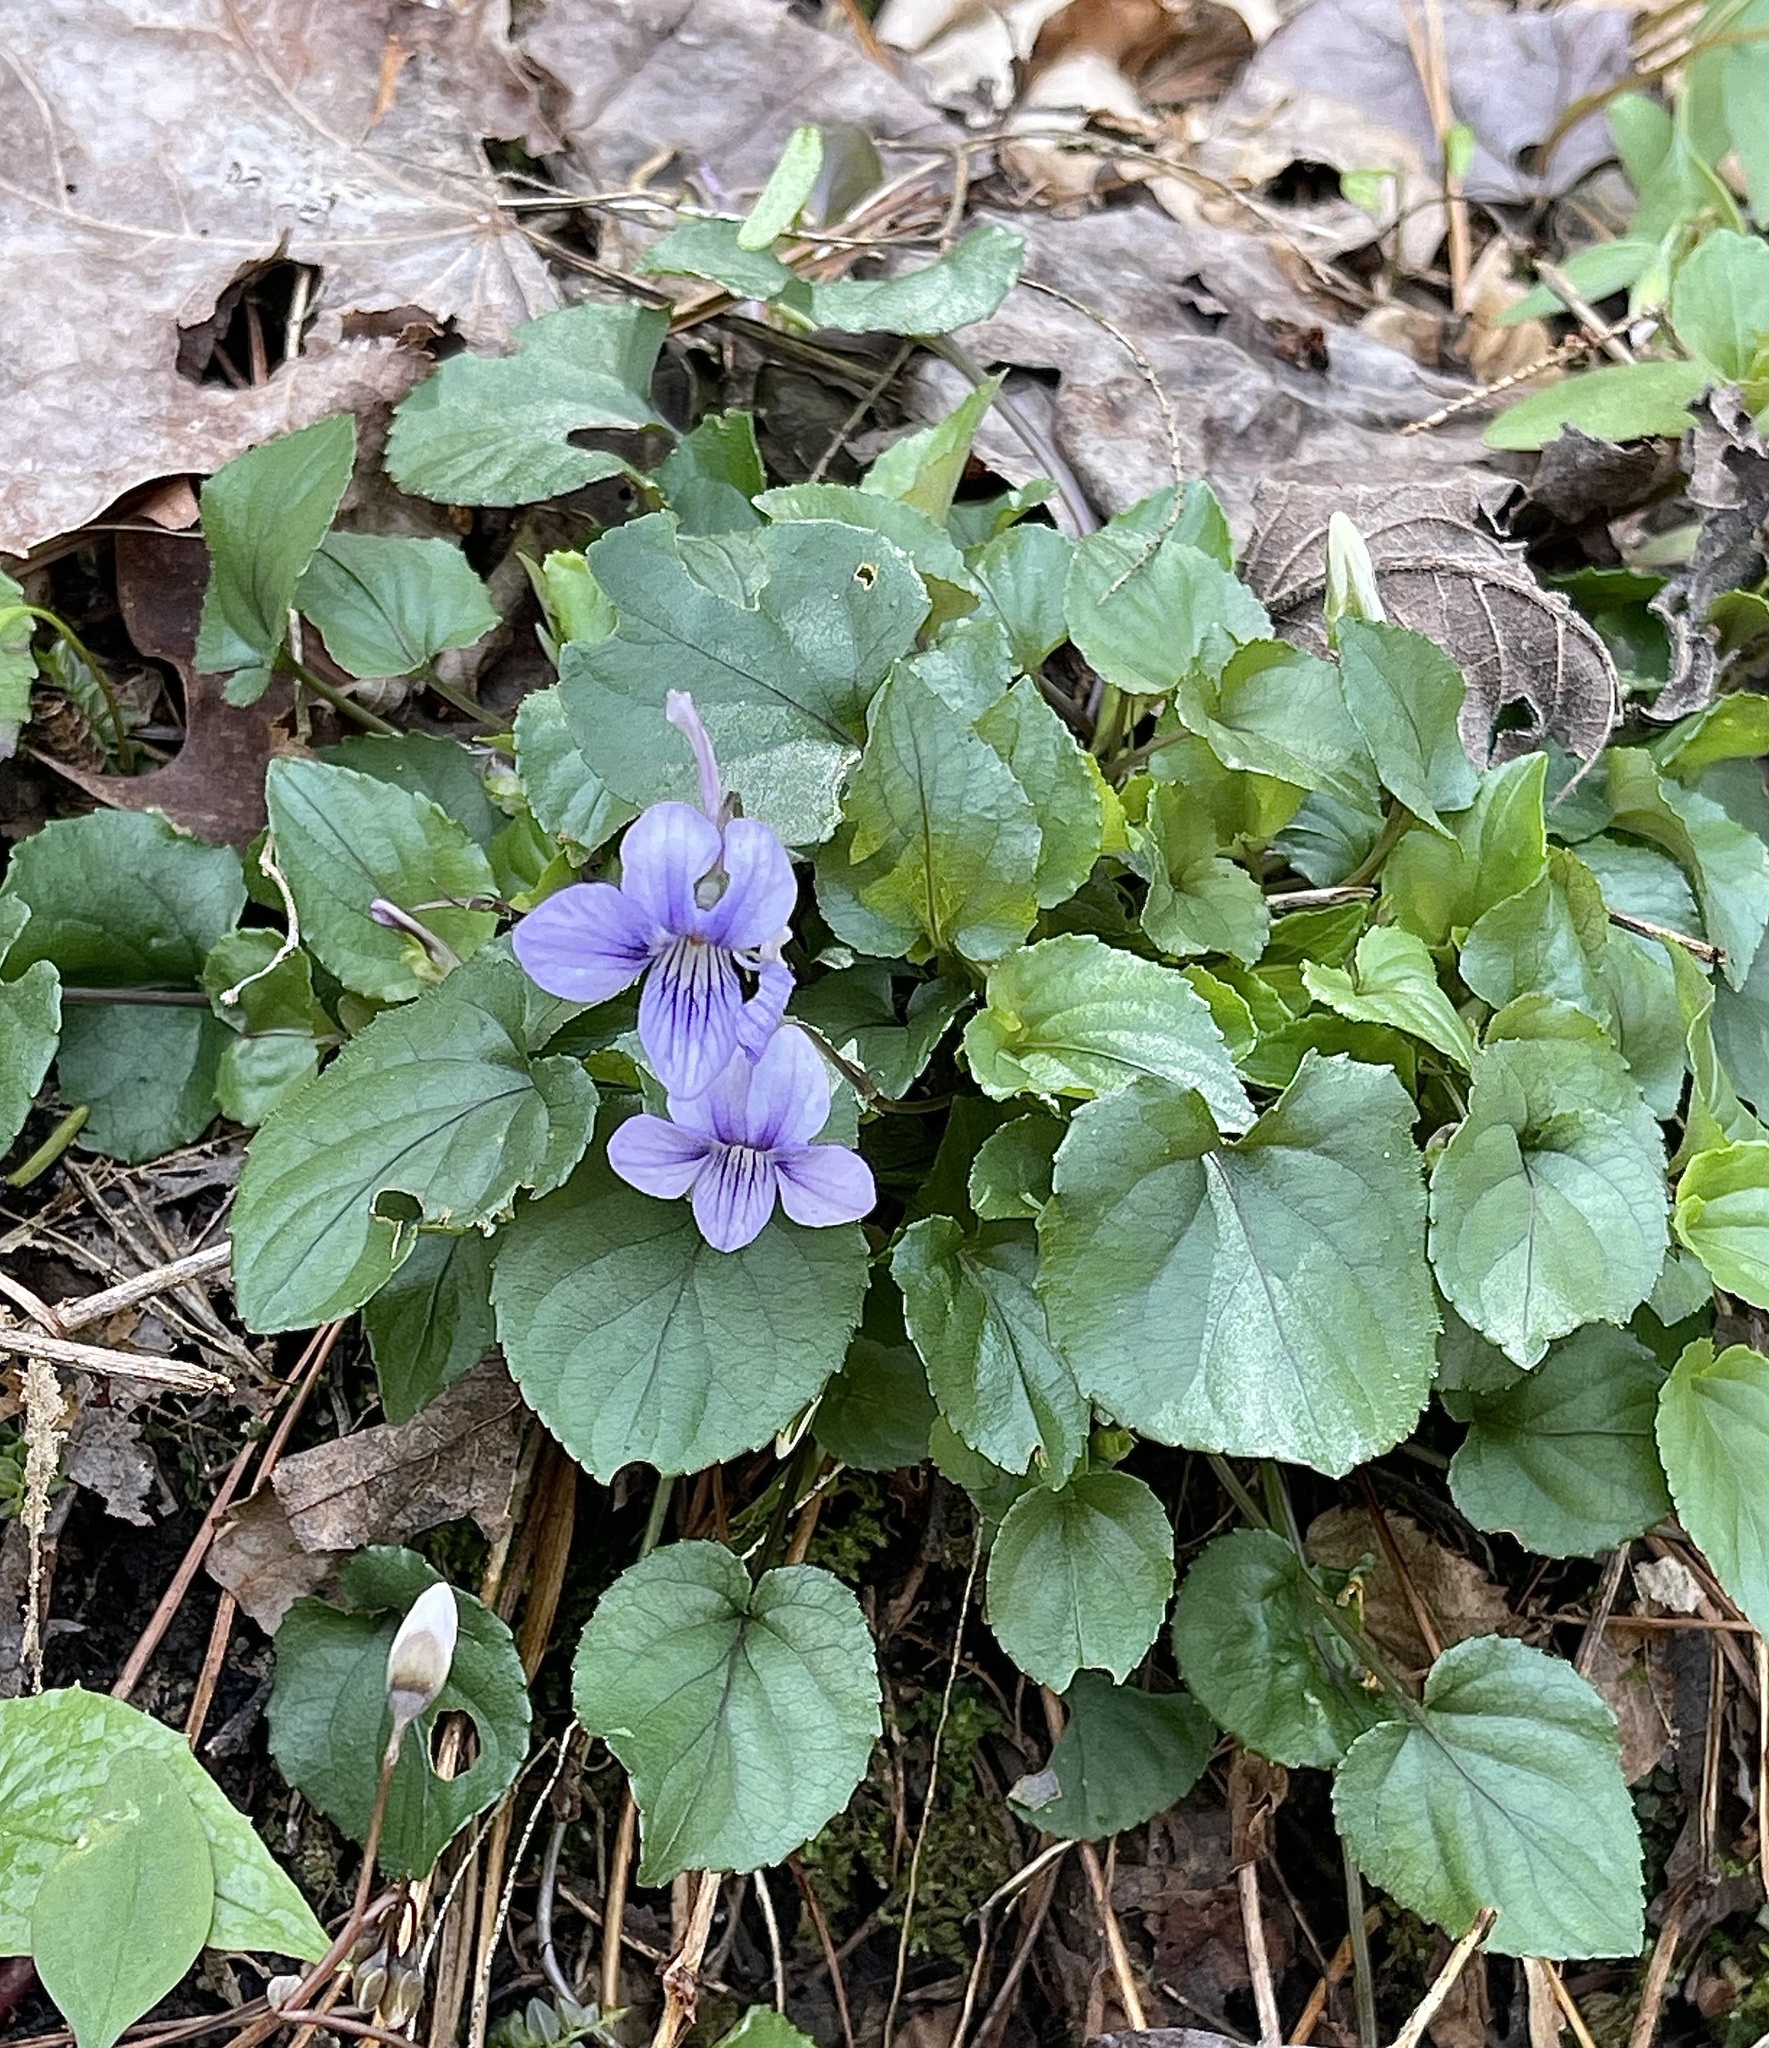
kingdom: Plantae
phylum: Tracheophyta
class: Magnoliopsida
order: Malpighiales
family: Violaceae
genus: Viola
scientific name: Viola rostrata
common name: Long-spur violet
